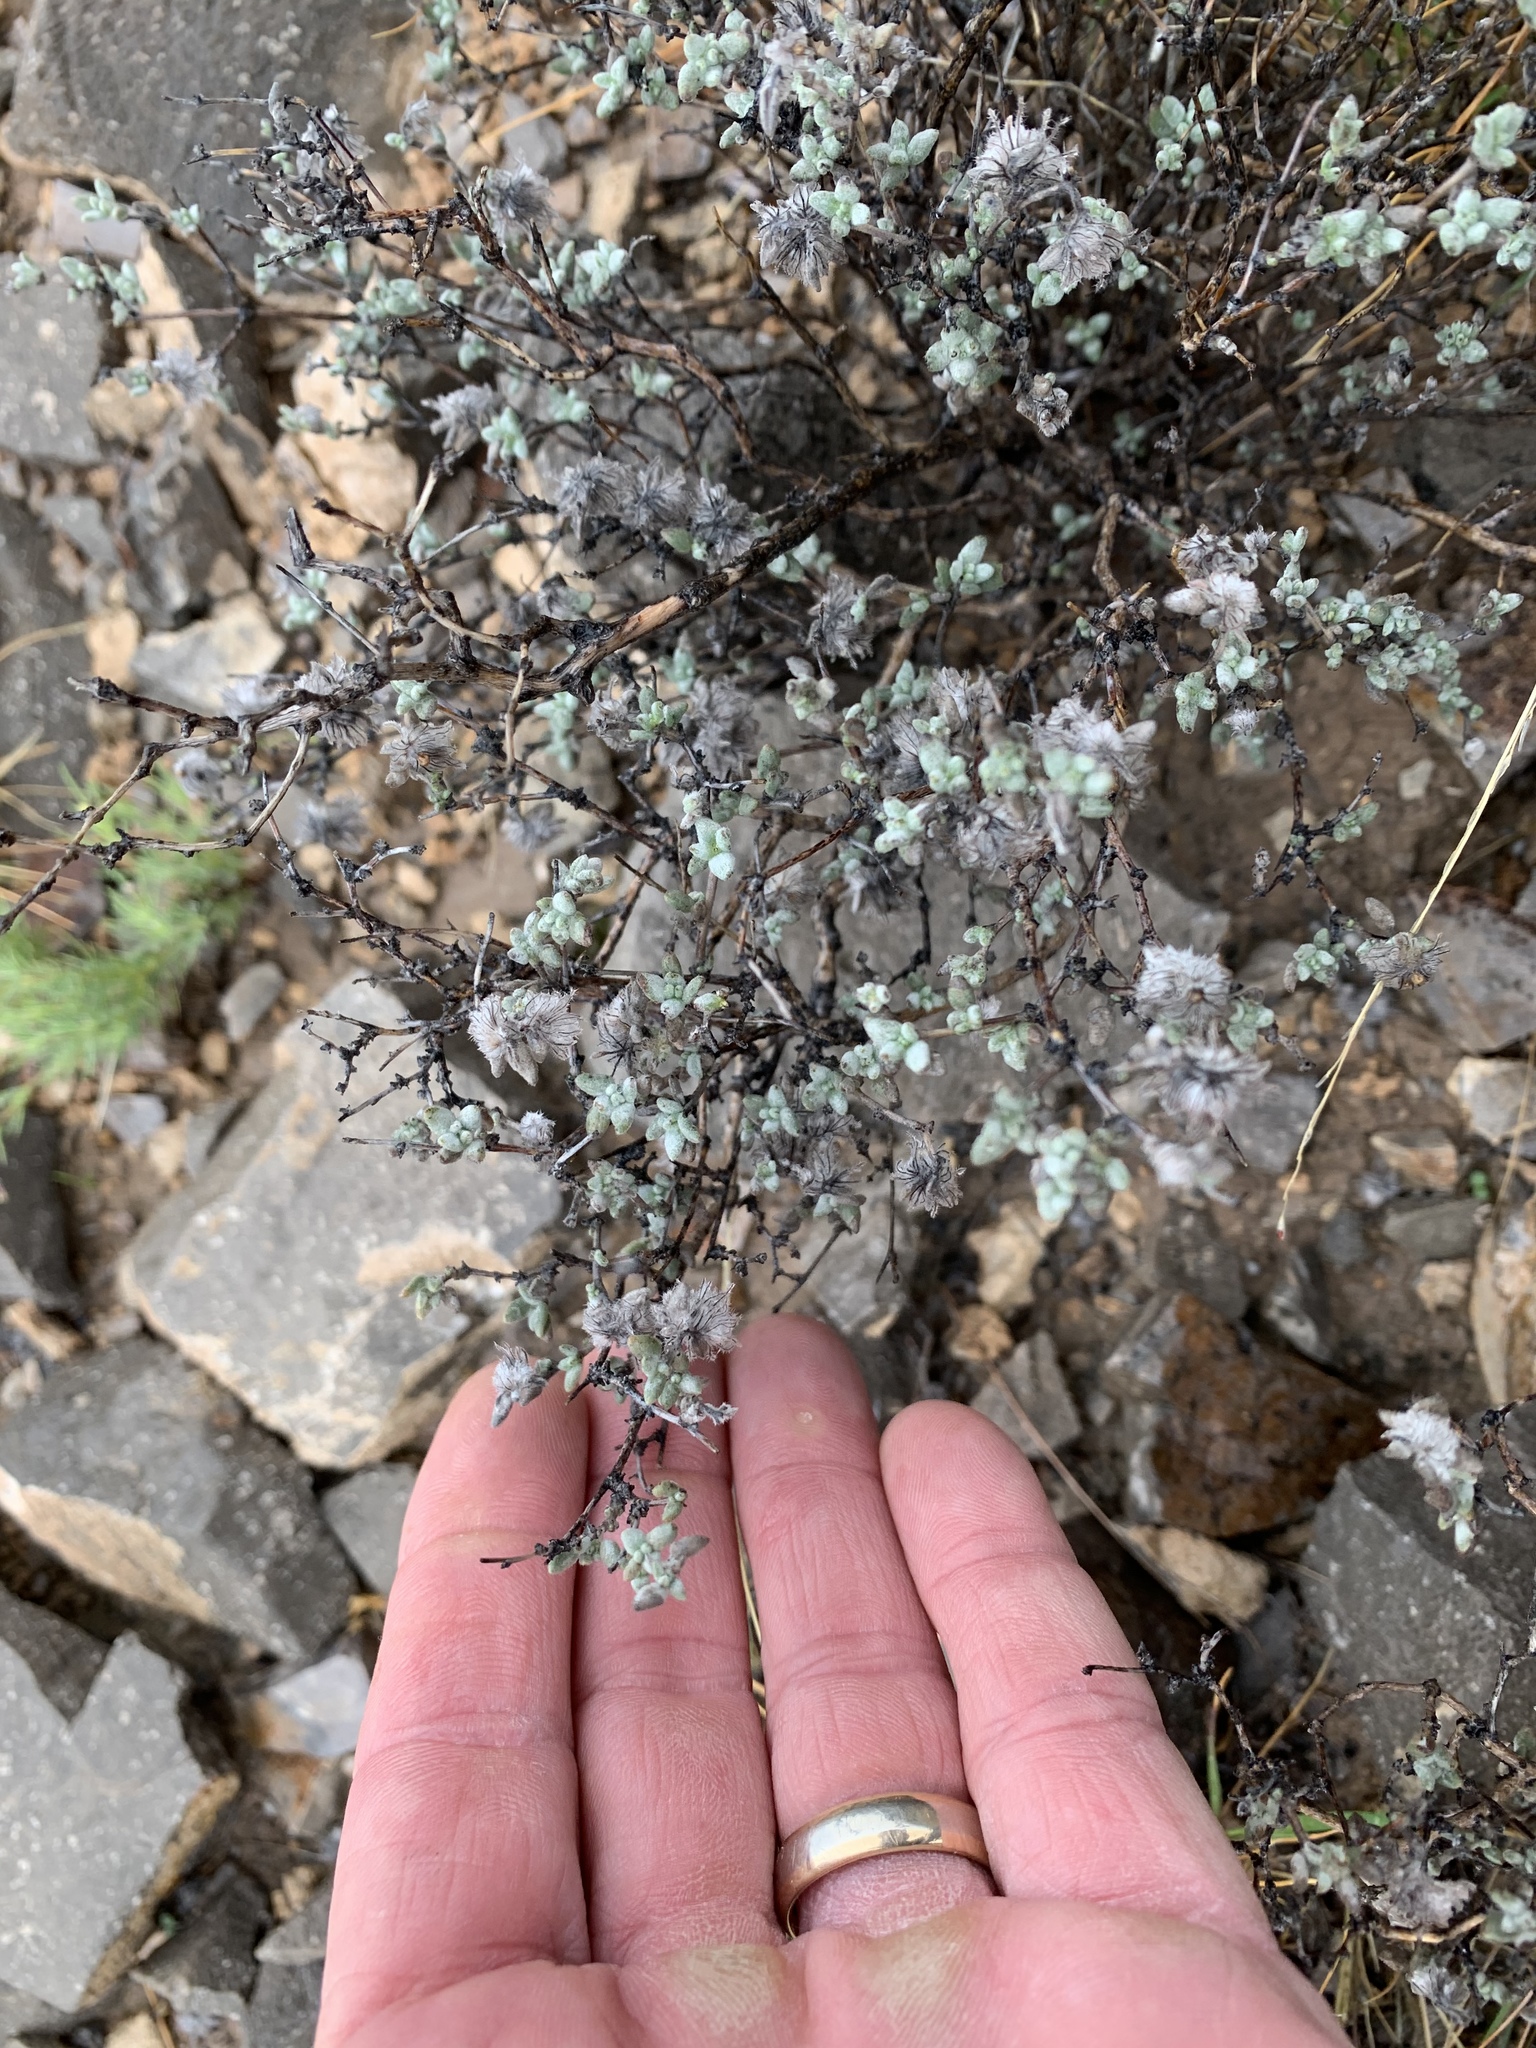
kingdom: Plantae
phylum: Tracheophyta
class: Magnoliopsida
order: Boraginales
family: Ehretiaceae
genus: Tiquilia
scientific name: Tiquilia greggii
